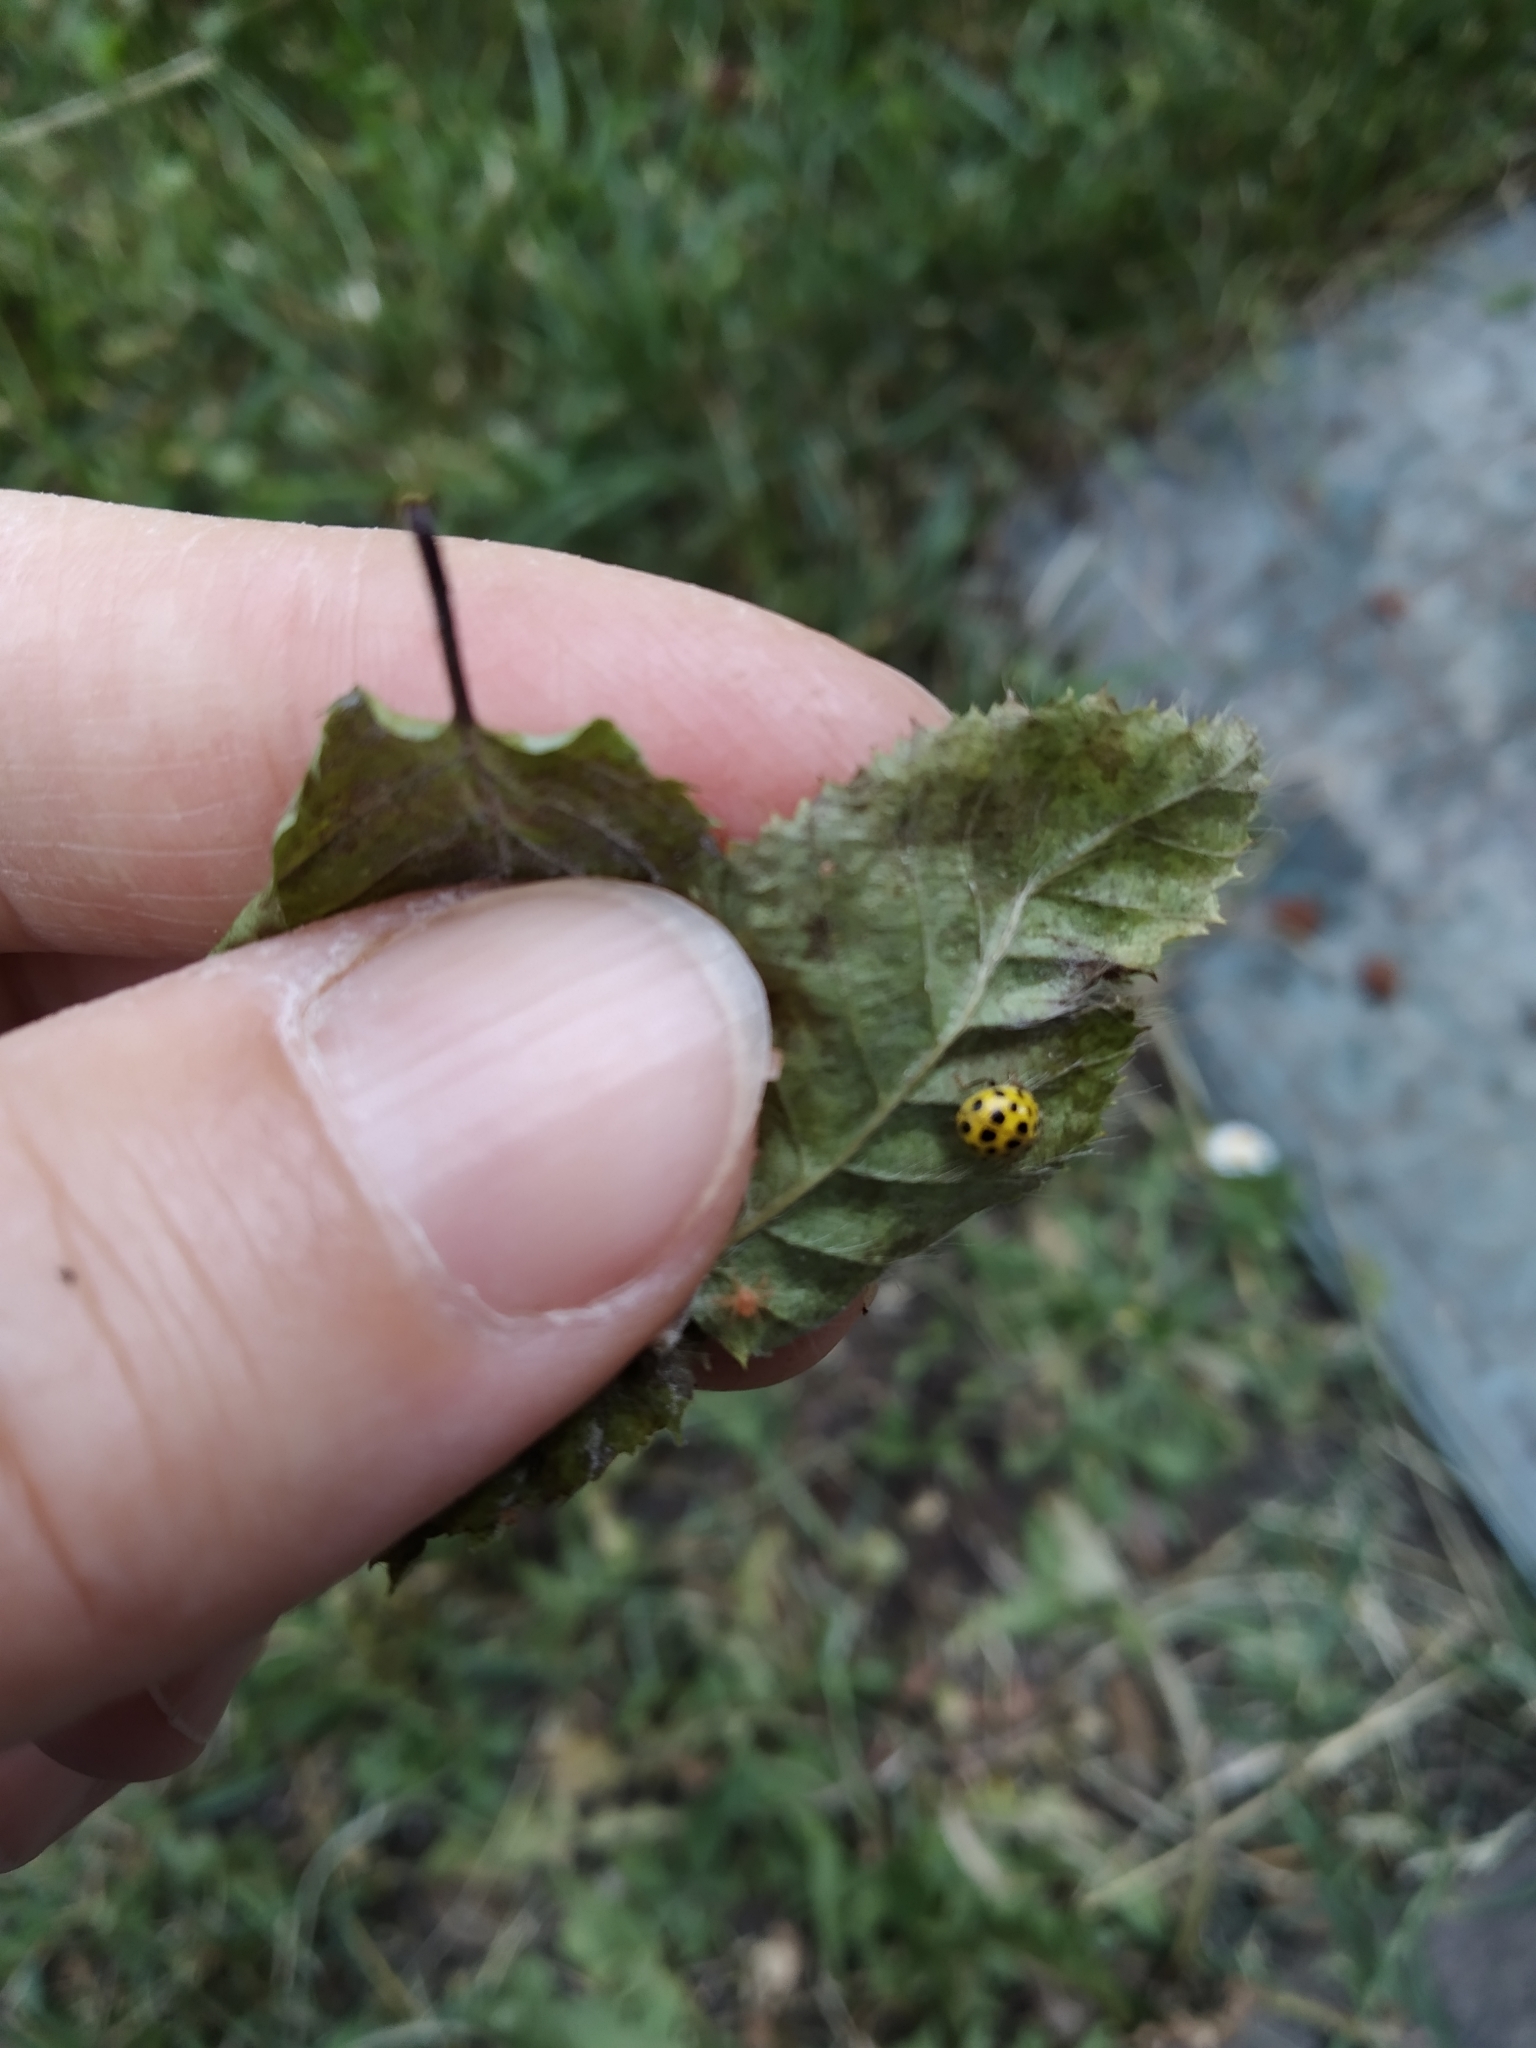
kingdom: Animalia
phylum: Arthropoda
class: Insecta
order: Coleoptera
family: Coccinellidae
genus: Psyllobora
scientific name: Psyllobora vigintiduopunctata
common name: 22-spot ladybird
